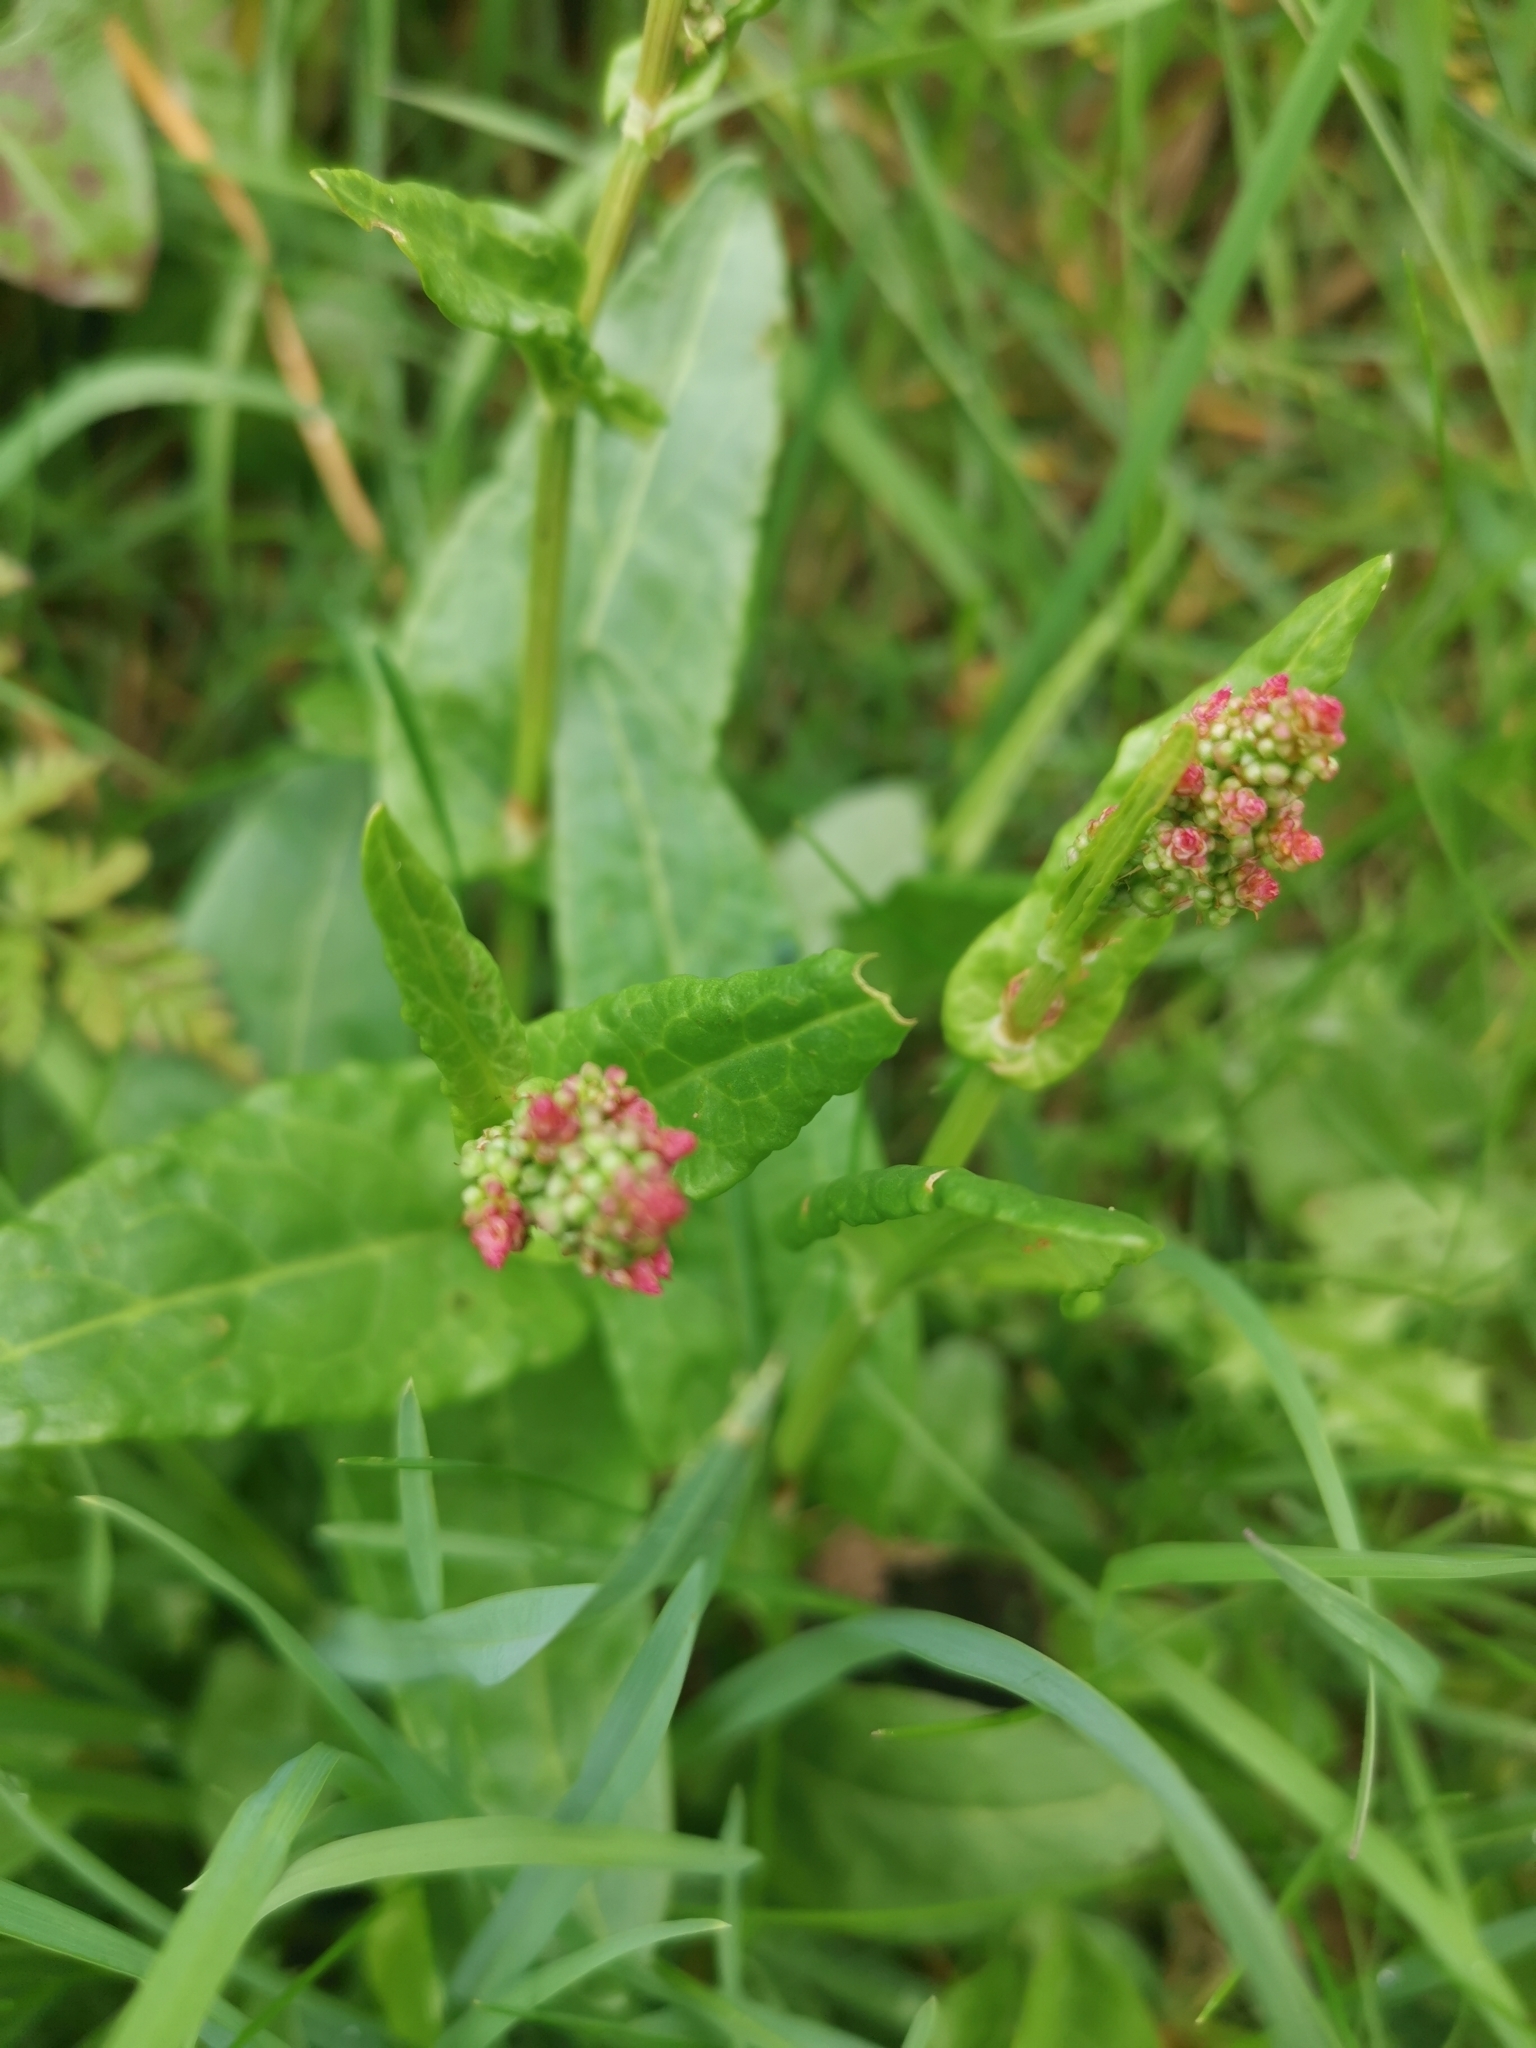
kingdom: Plantae
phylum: Tracheophyta
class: Magnoliopsida
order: Caryophyllales
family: Polygonaceae
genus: Rumex
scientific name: Rumex acetosa
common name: Garden sorrel
